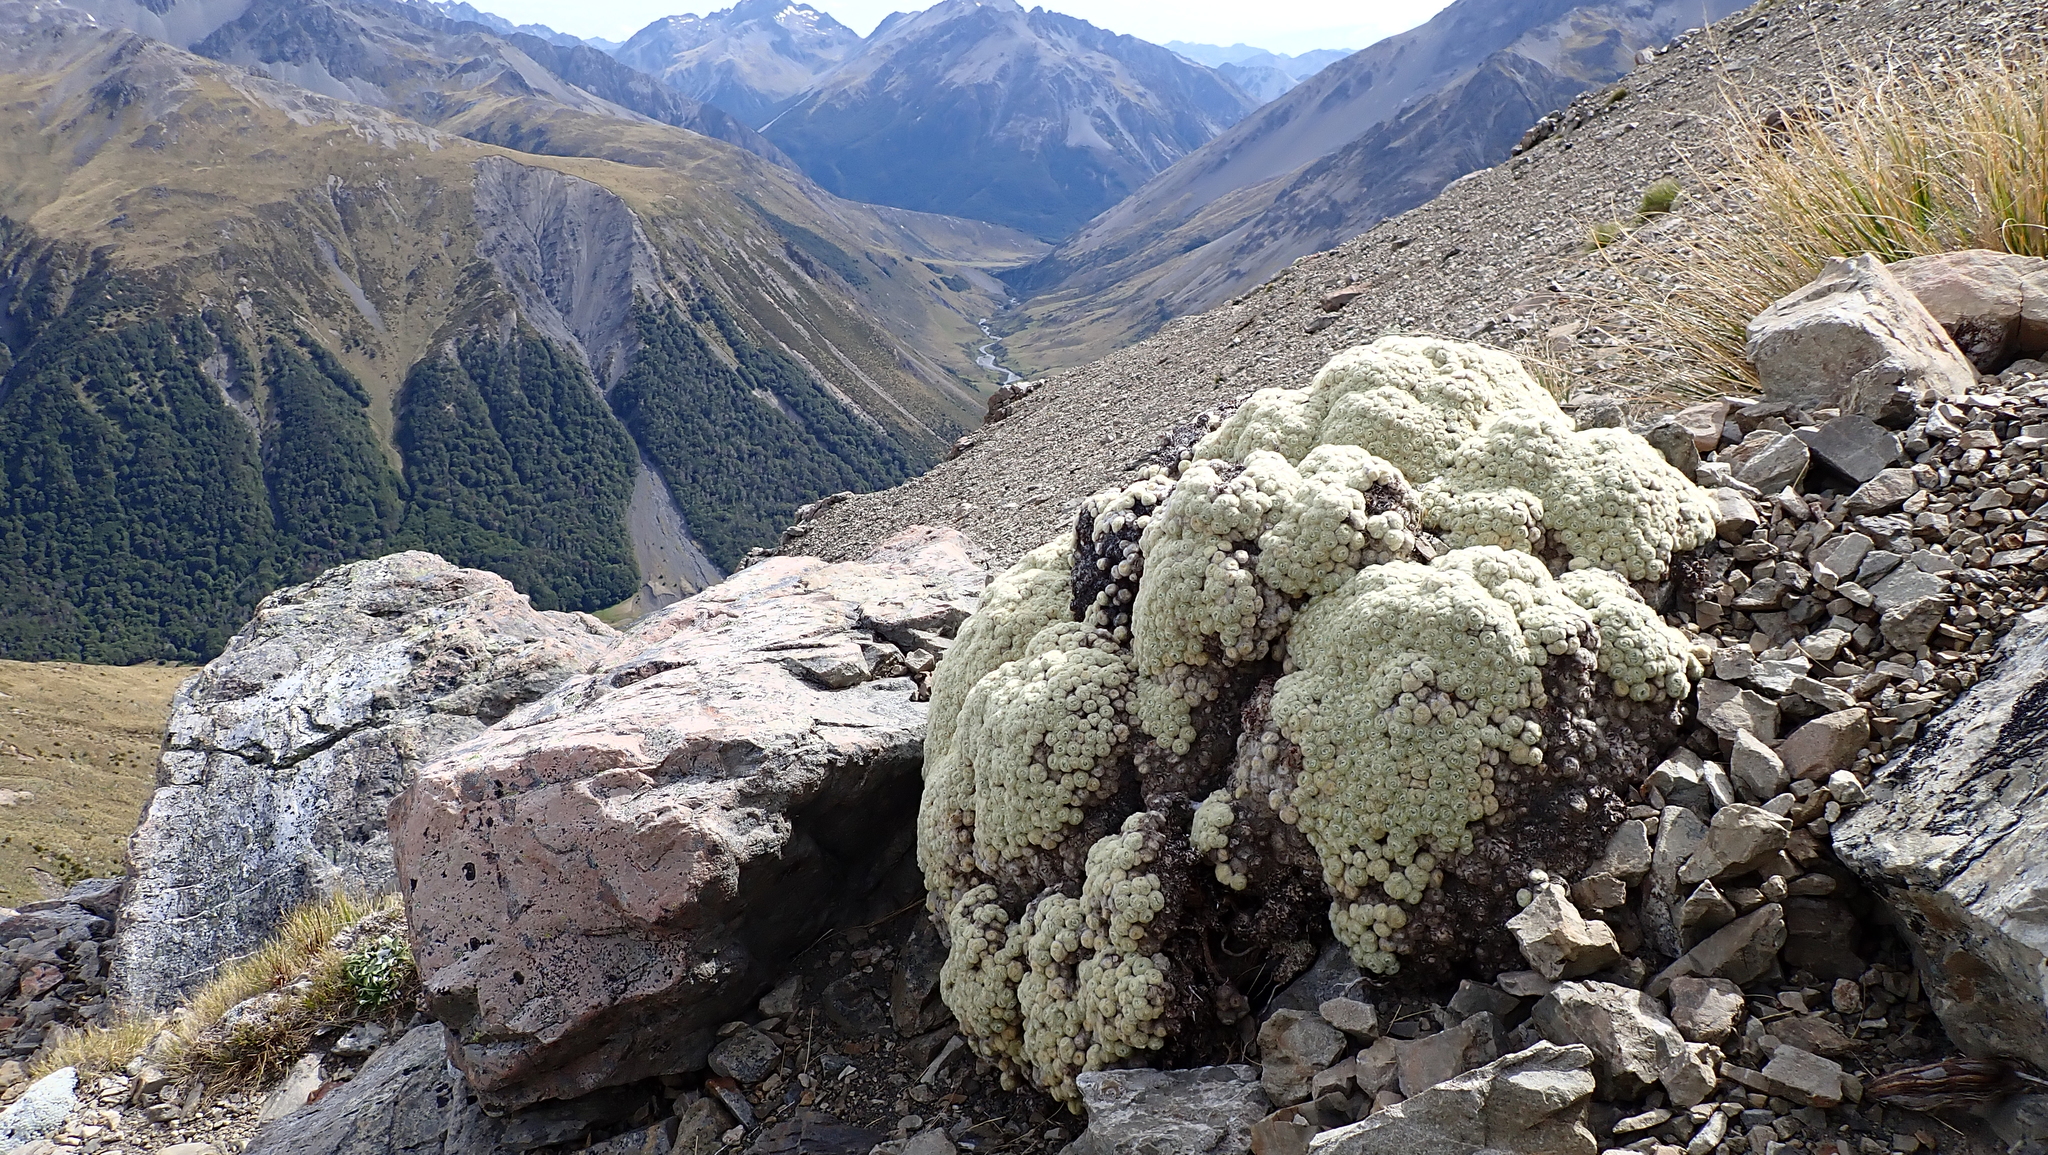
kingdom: Plantae
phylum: Tracheophyta
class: Magnoliopsida
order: Asterales
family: Asteraceae
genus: Haastia
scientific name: Haastia pulvinaris
